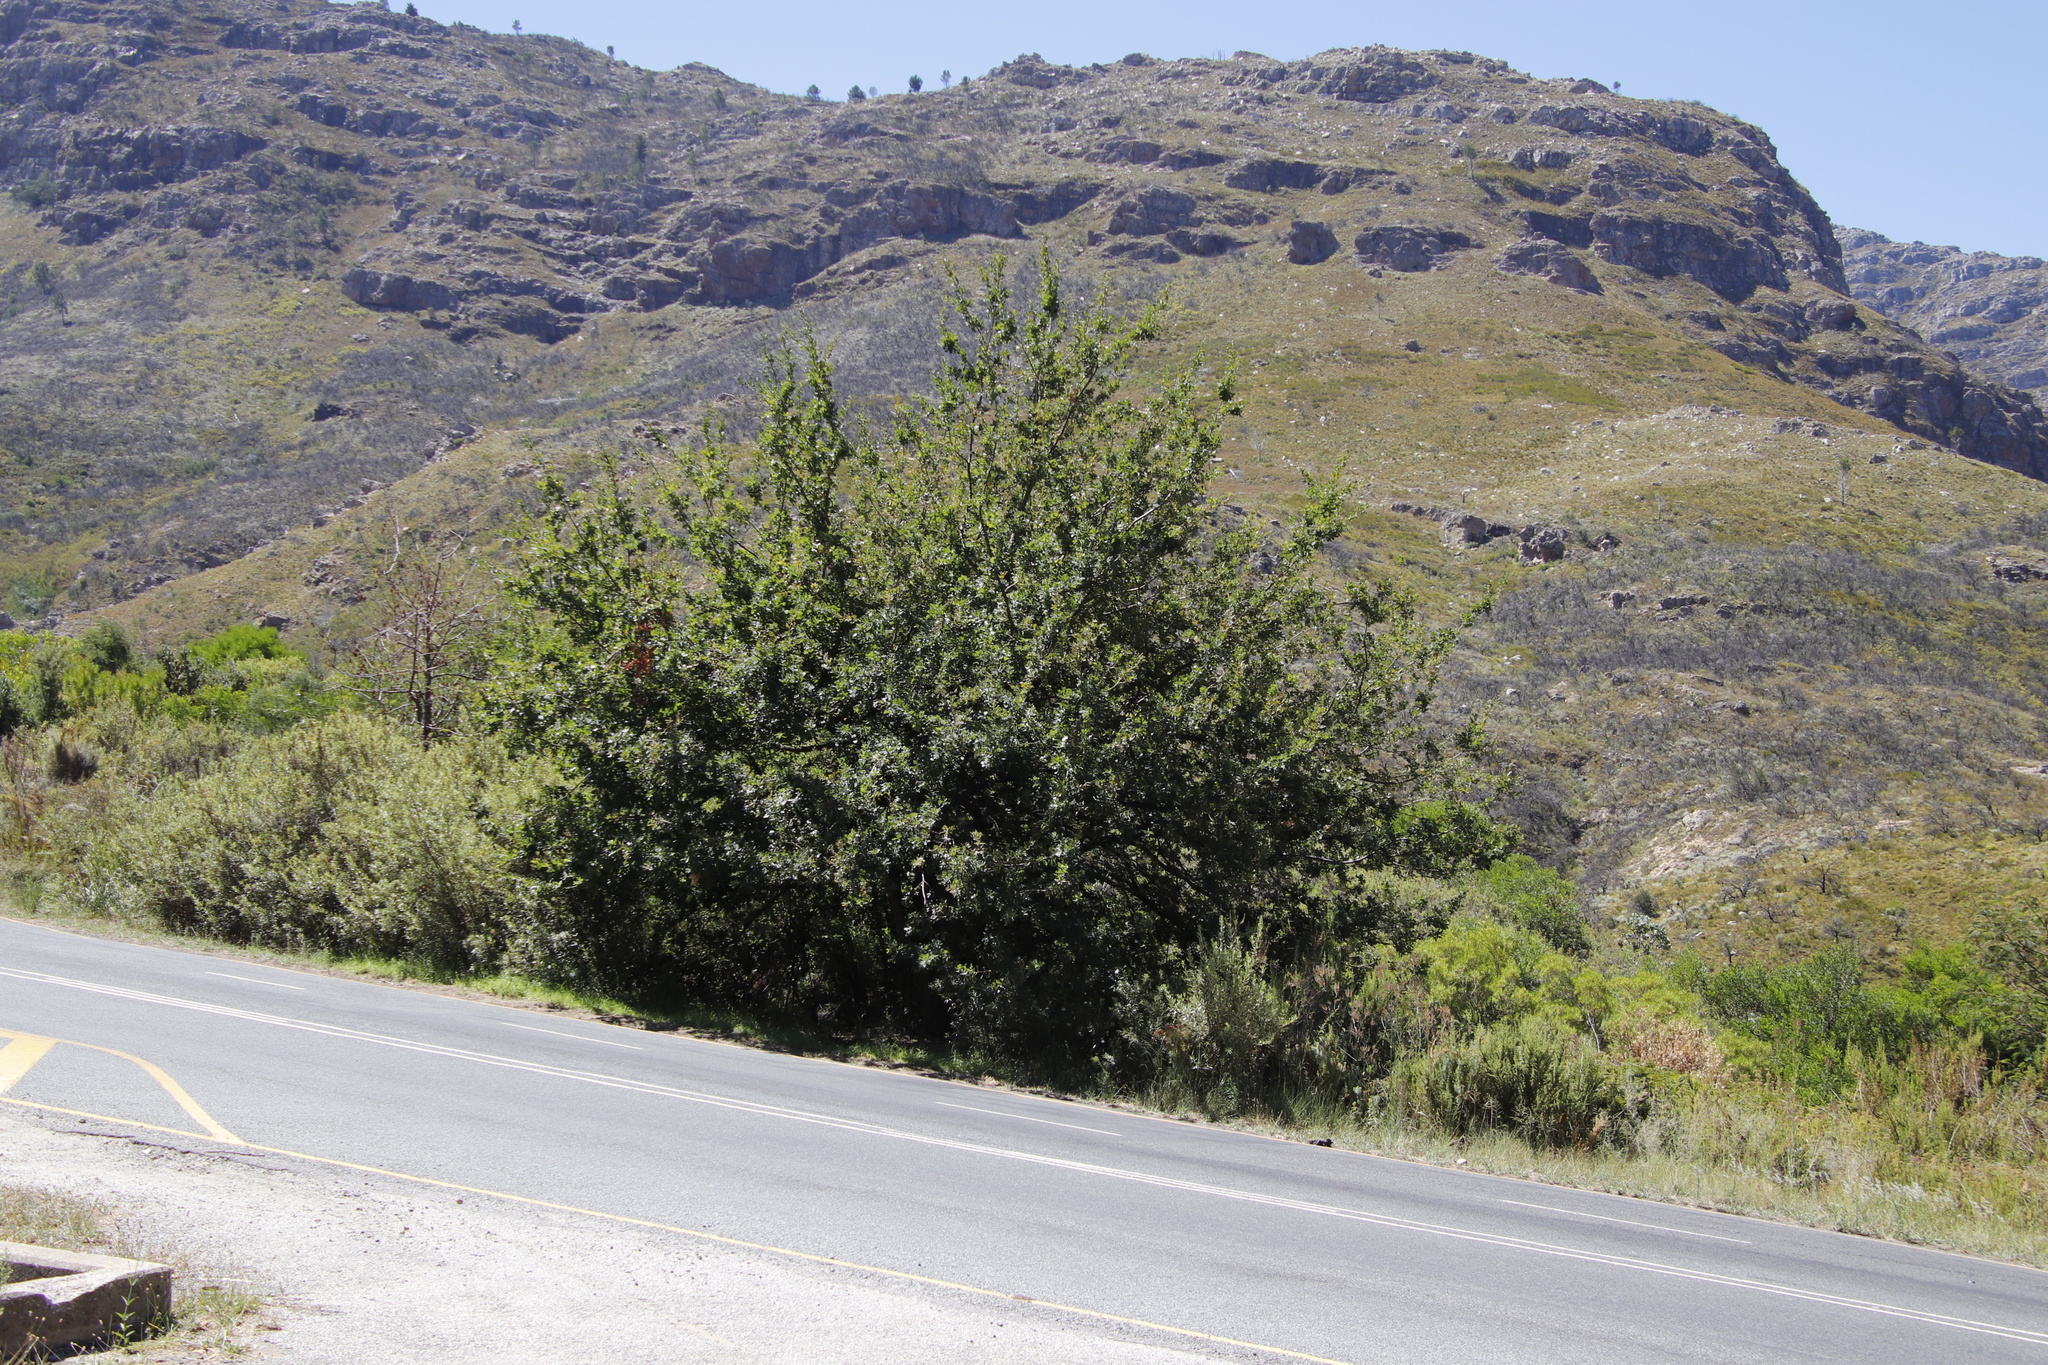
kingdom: Plantae
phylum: Tracheophyta
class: Magnoliopsida
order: Fagales
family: Fagaceae
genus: Quercus
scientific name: Quercus robur
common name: Pedunculate oak
